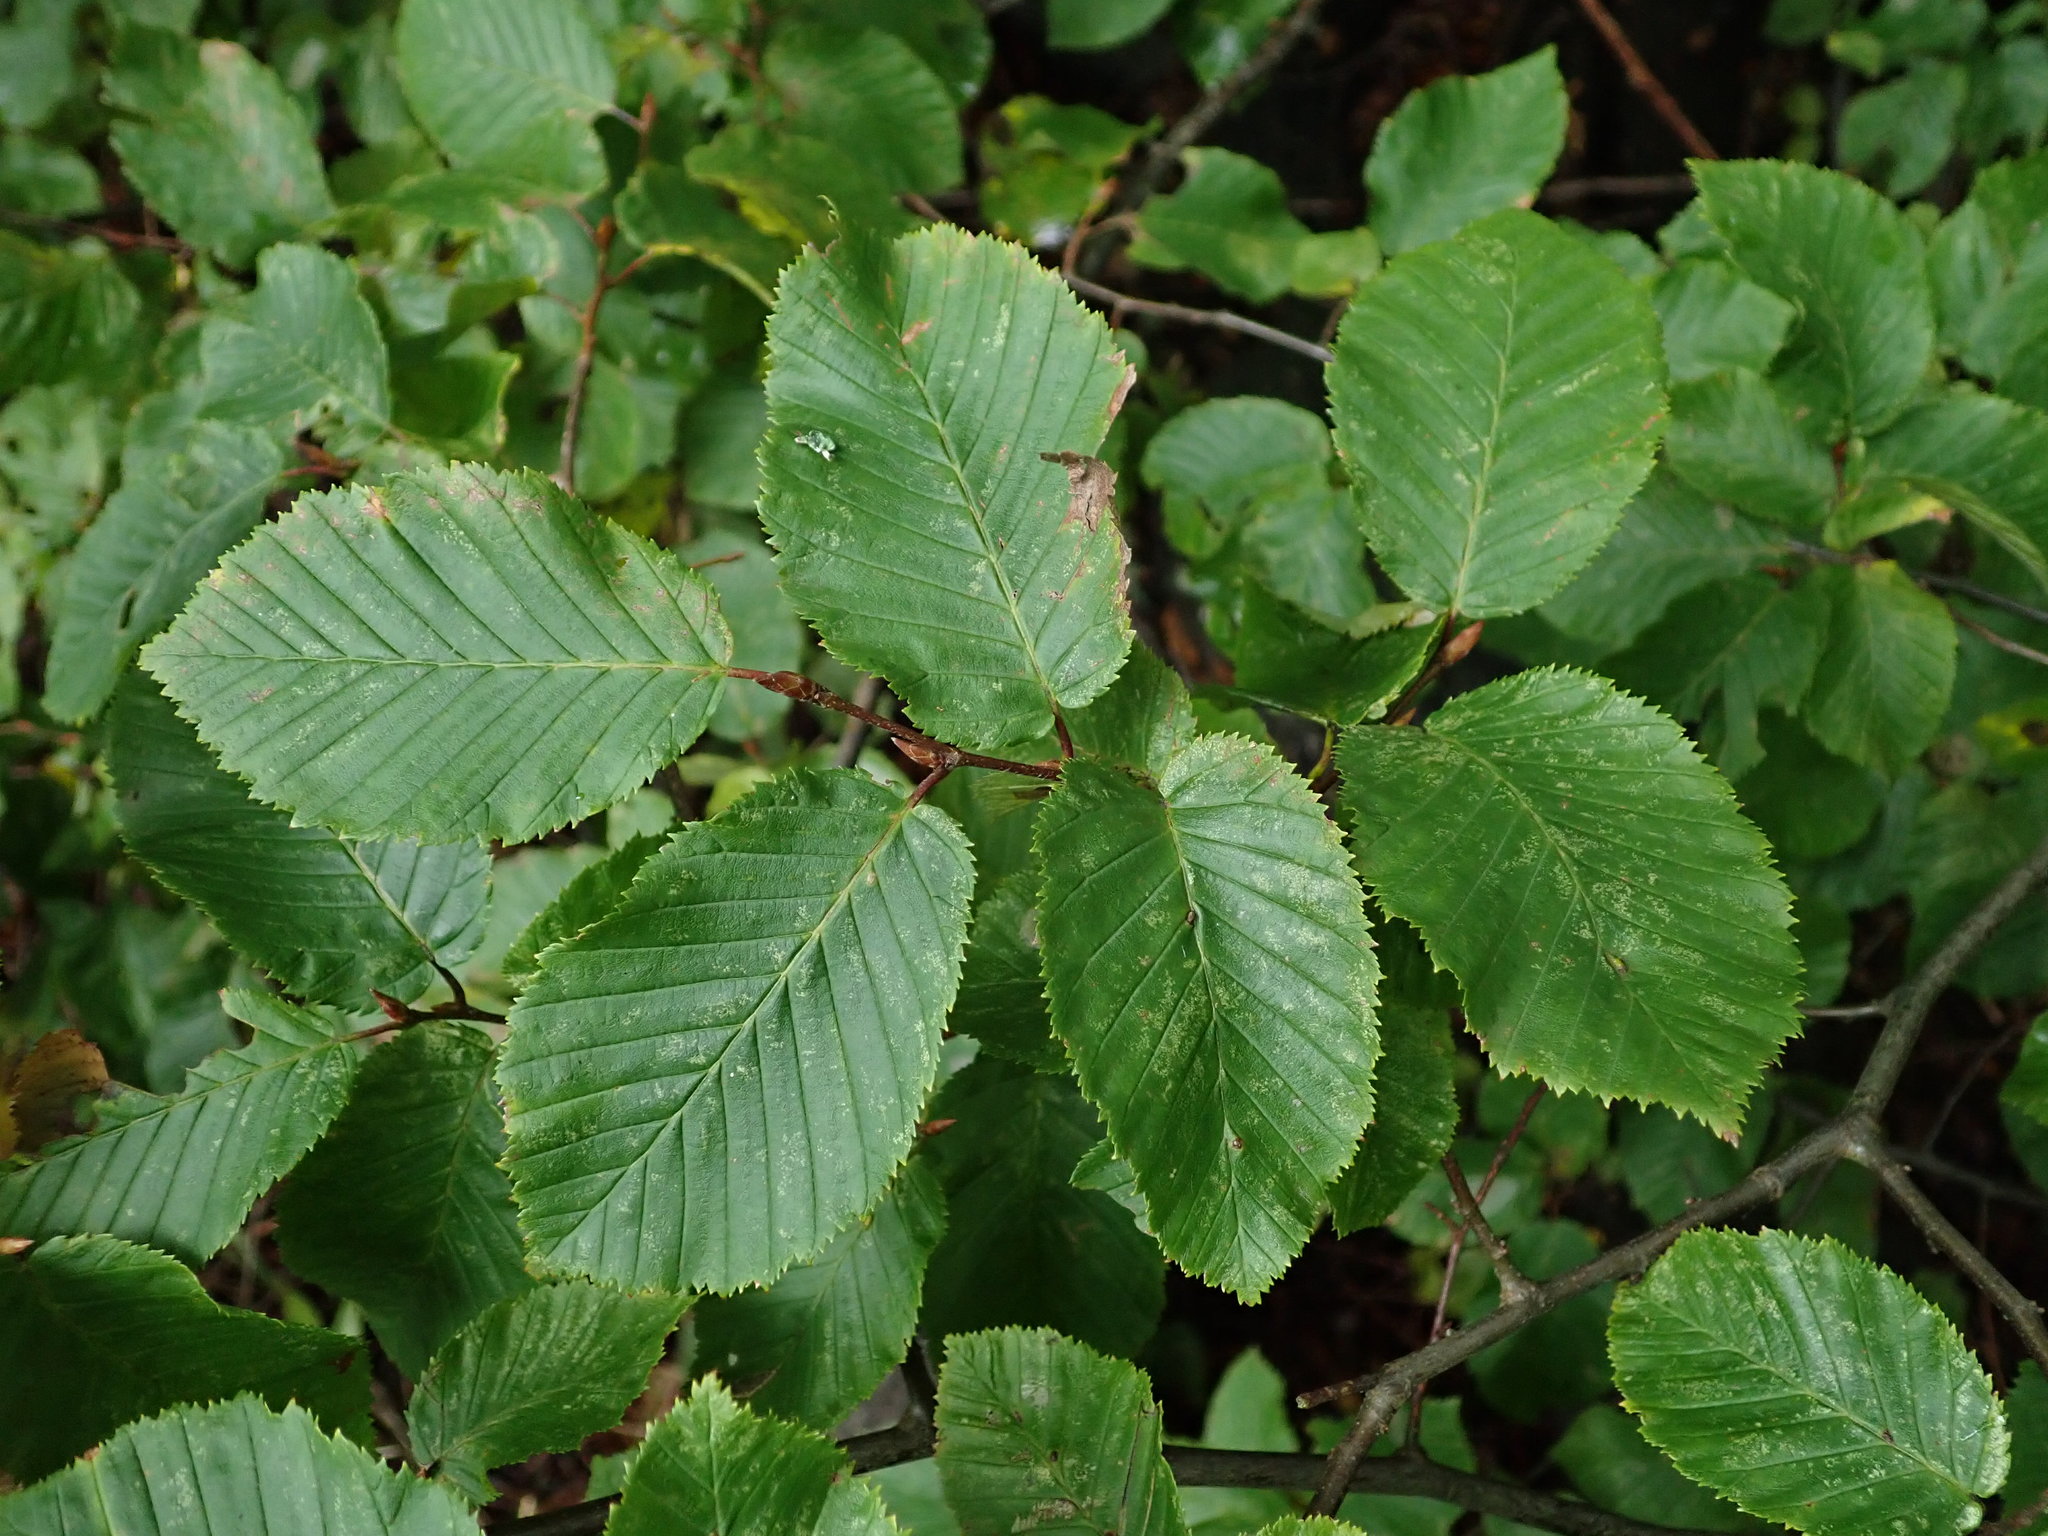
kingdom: Plantae
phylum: Tracheophyta
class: Magnoliopsida
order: Fagales
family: Betulaceae
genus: Carpinus
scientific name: Carpinus betulus
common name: Hornbeam
